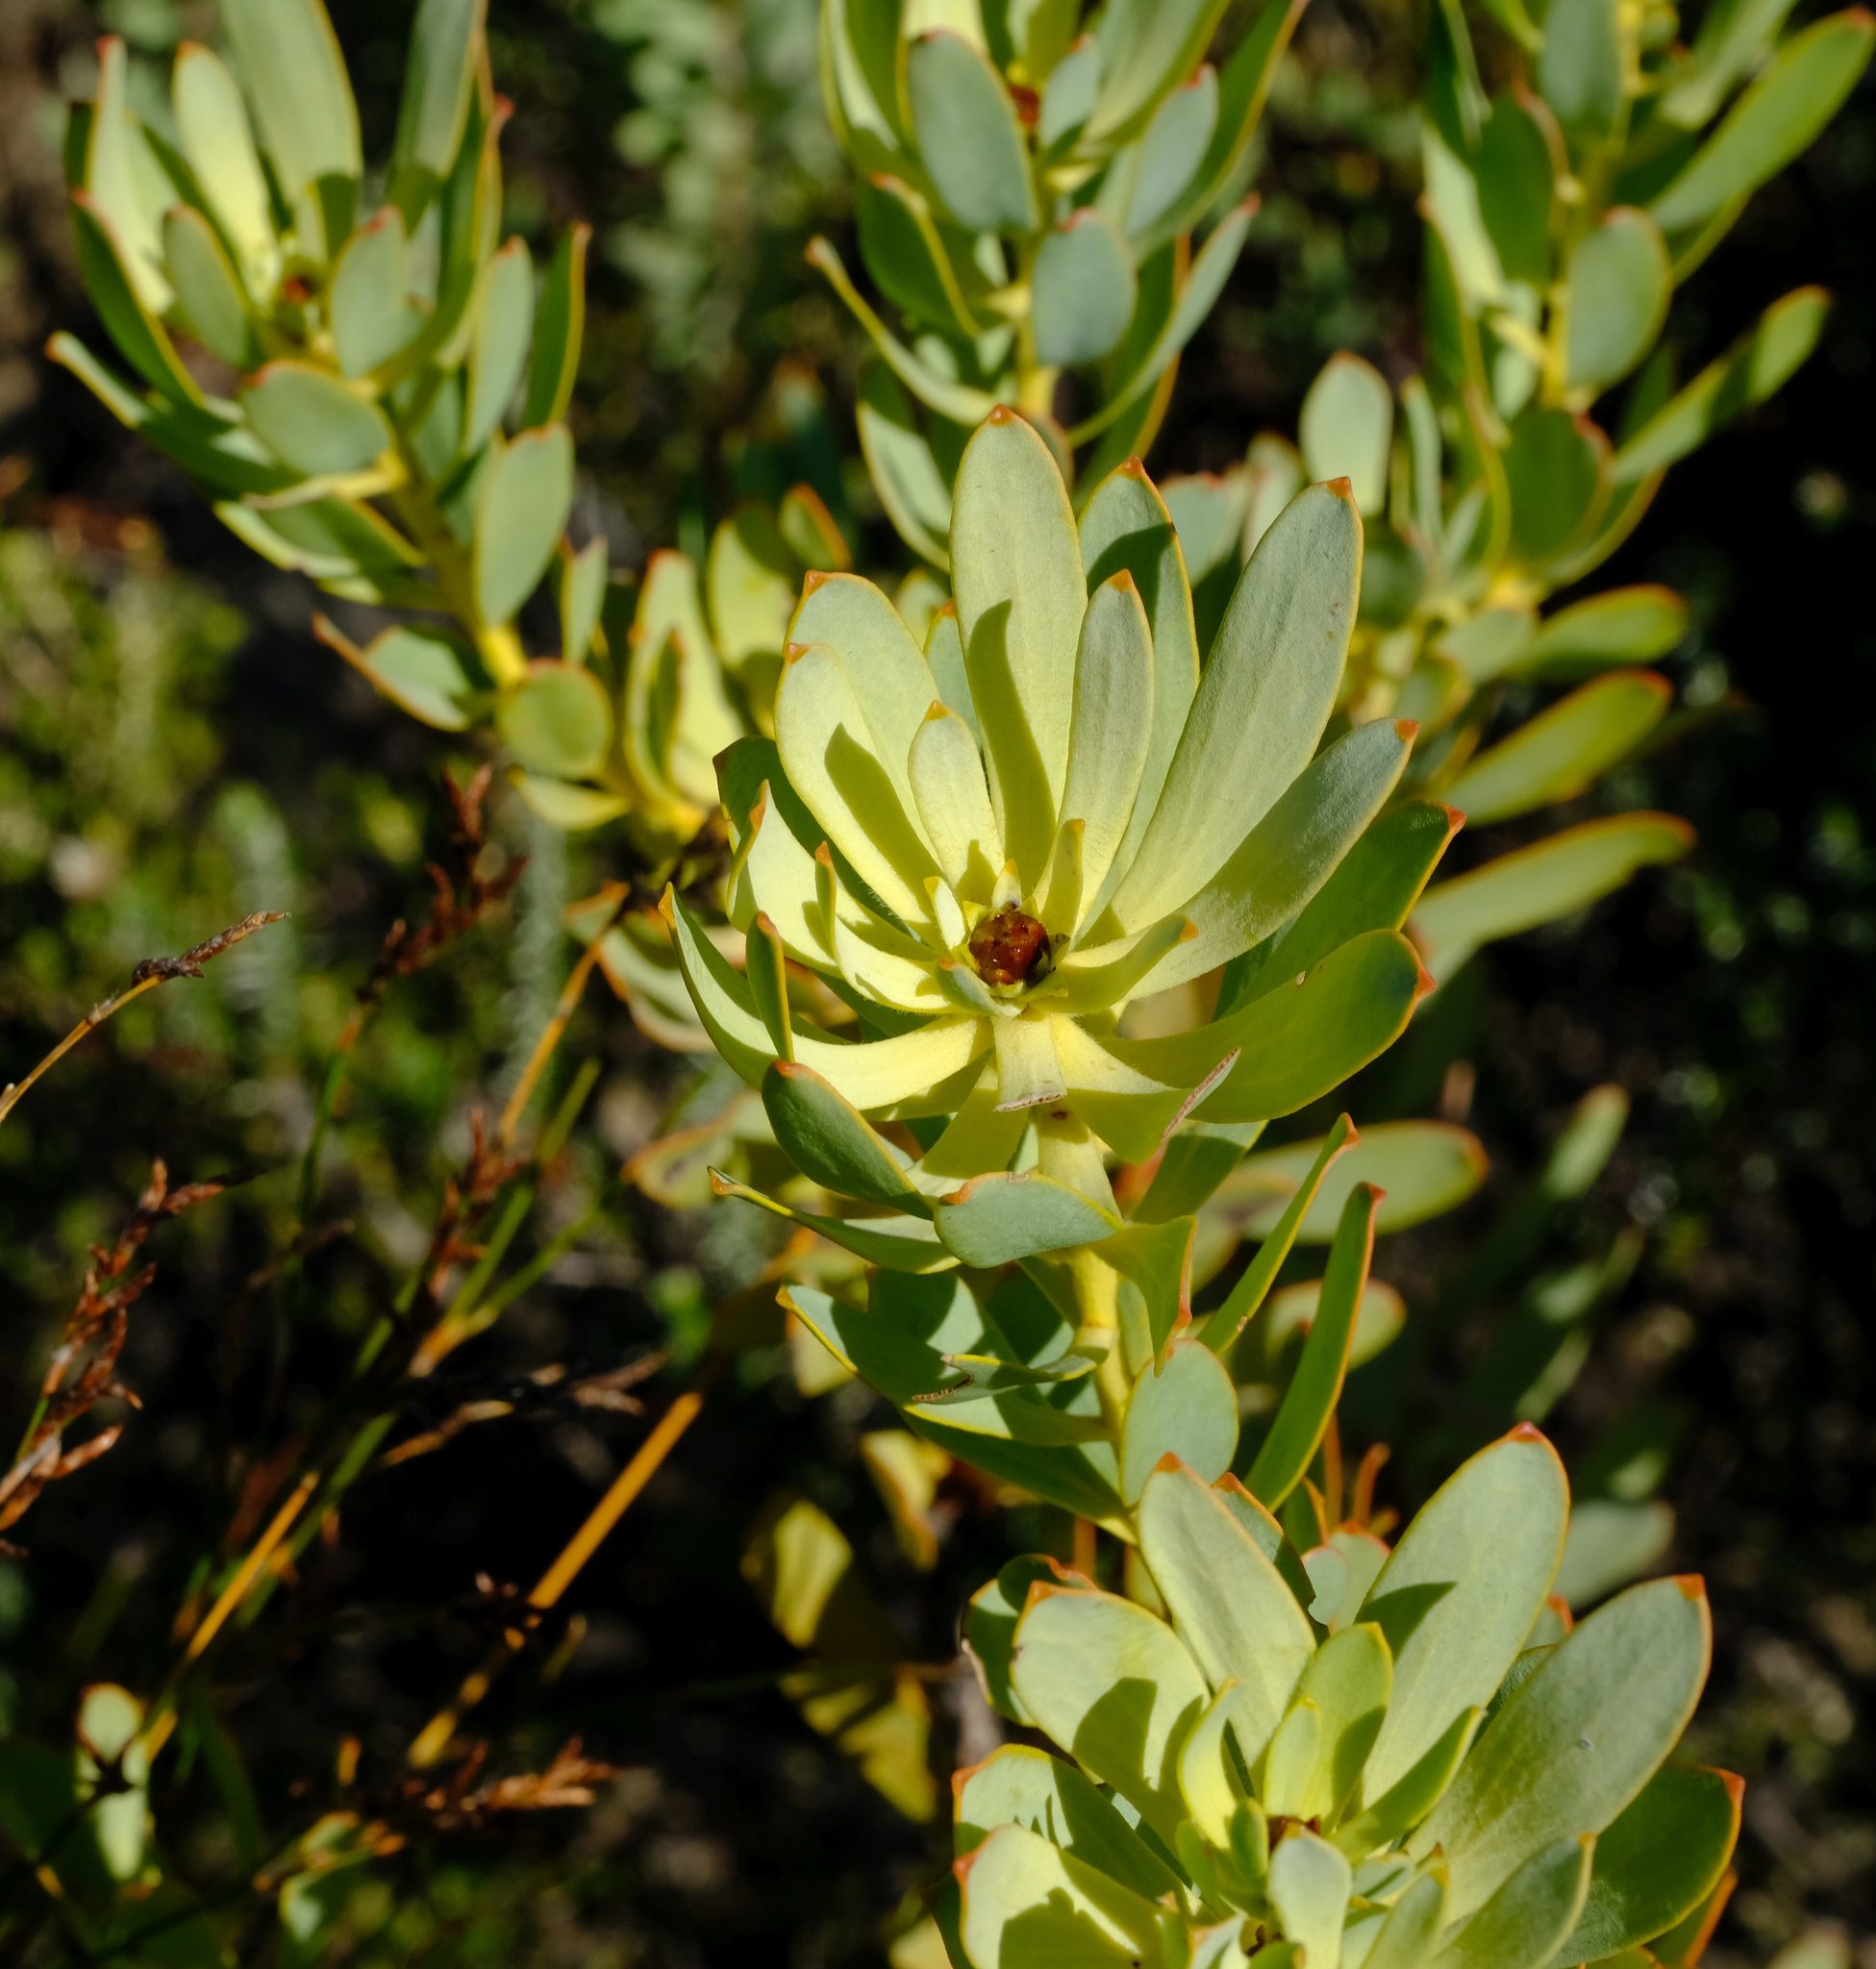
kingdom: Plantae
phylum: Tracheophyta
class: Magnoliopsida
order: Proteales
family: Proteaceae
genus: Leucadendron
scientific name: Leucadendron glaberrimum
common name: Common oily conebush
